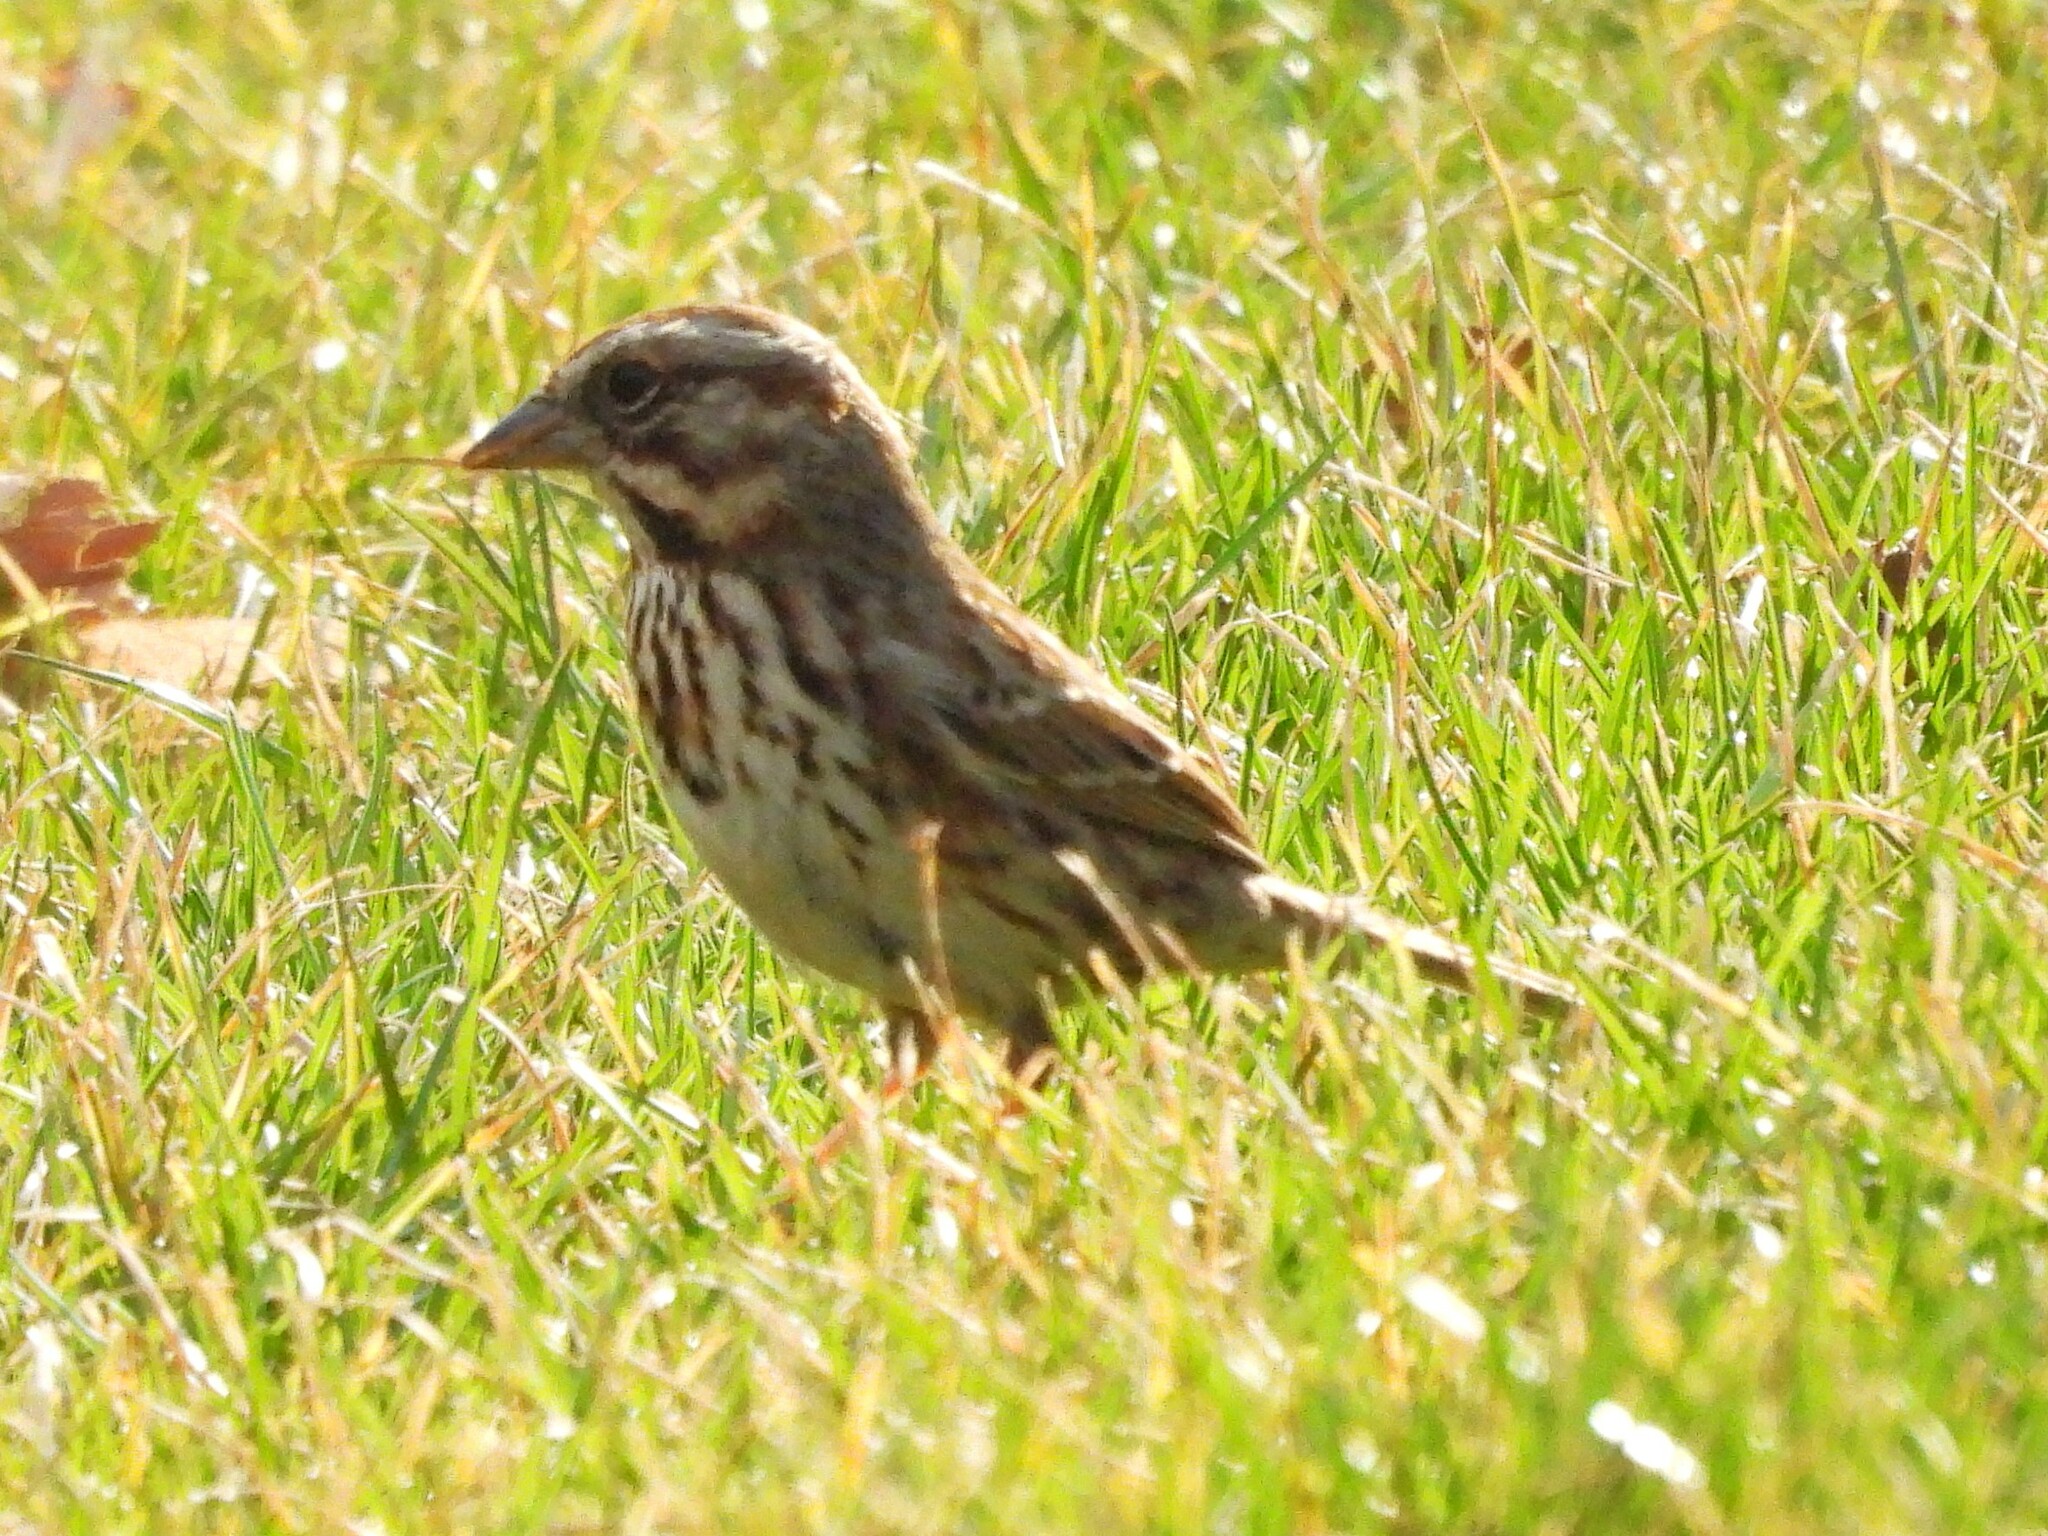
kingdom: Animalia
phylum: Chordata
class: Aves
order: Passeriformes
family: Passerellidae
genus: Melospiza
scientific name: Melospiza melodia
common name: Song sparrow
